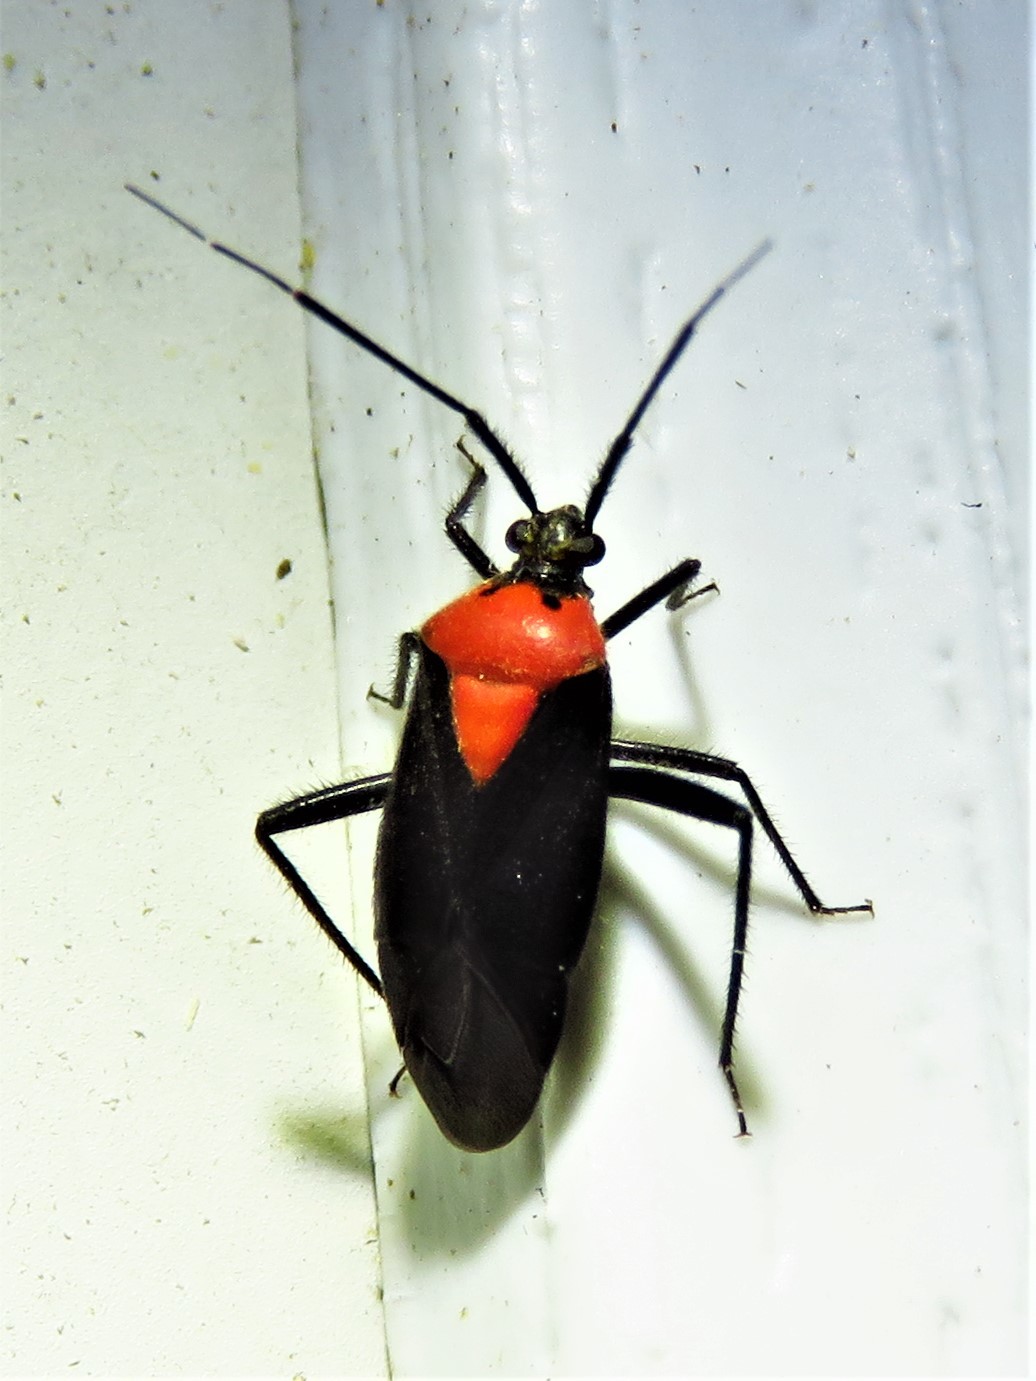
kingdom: Animalia
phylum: Arthropoda
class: Insecta
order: Hemiptera
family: Miridae
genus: Taedia
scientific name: Taedia scrupea
